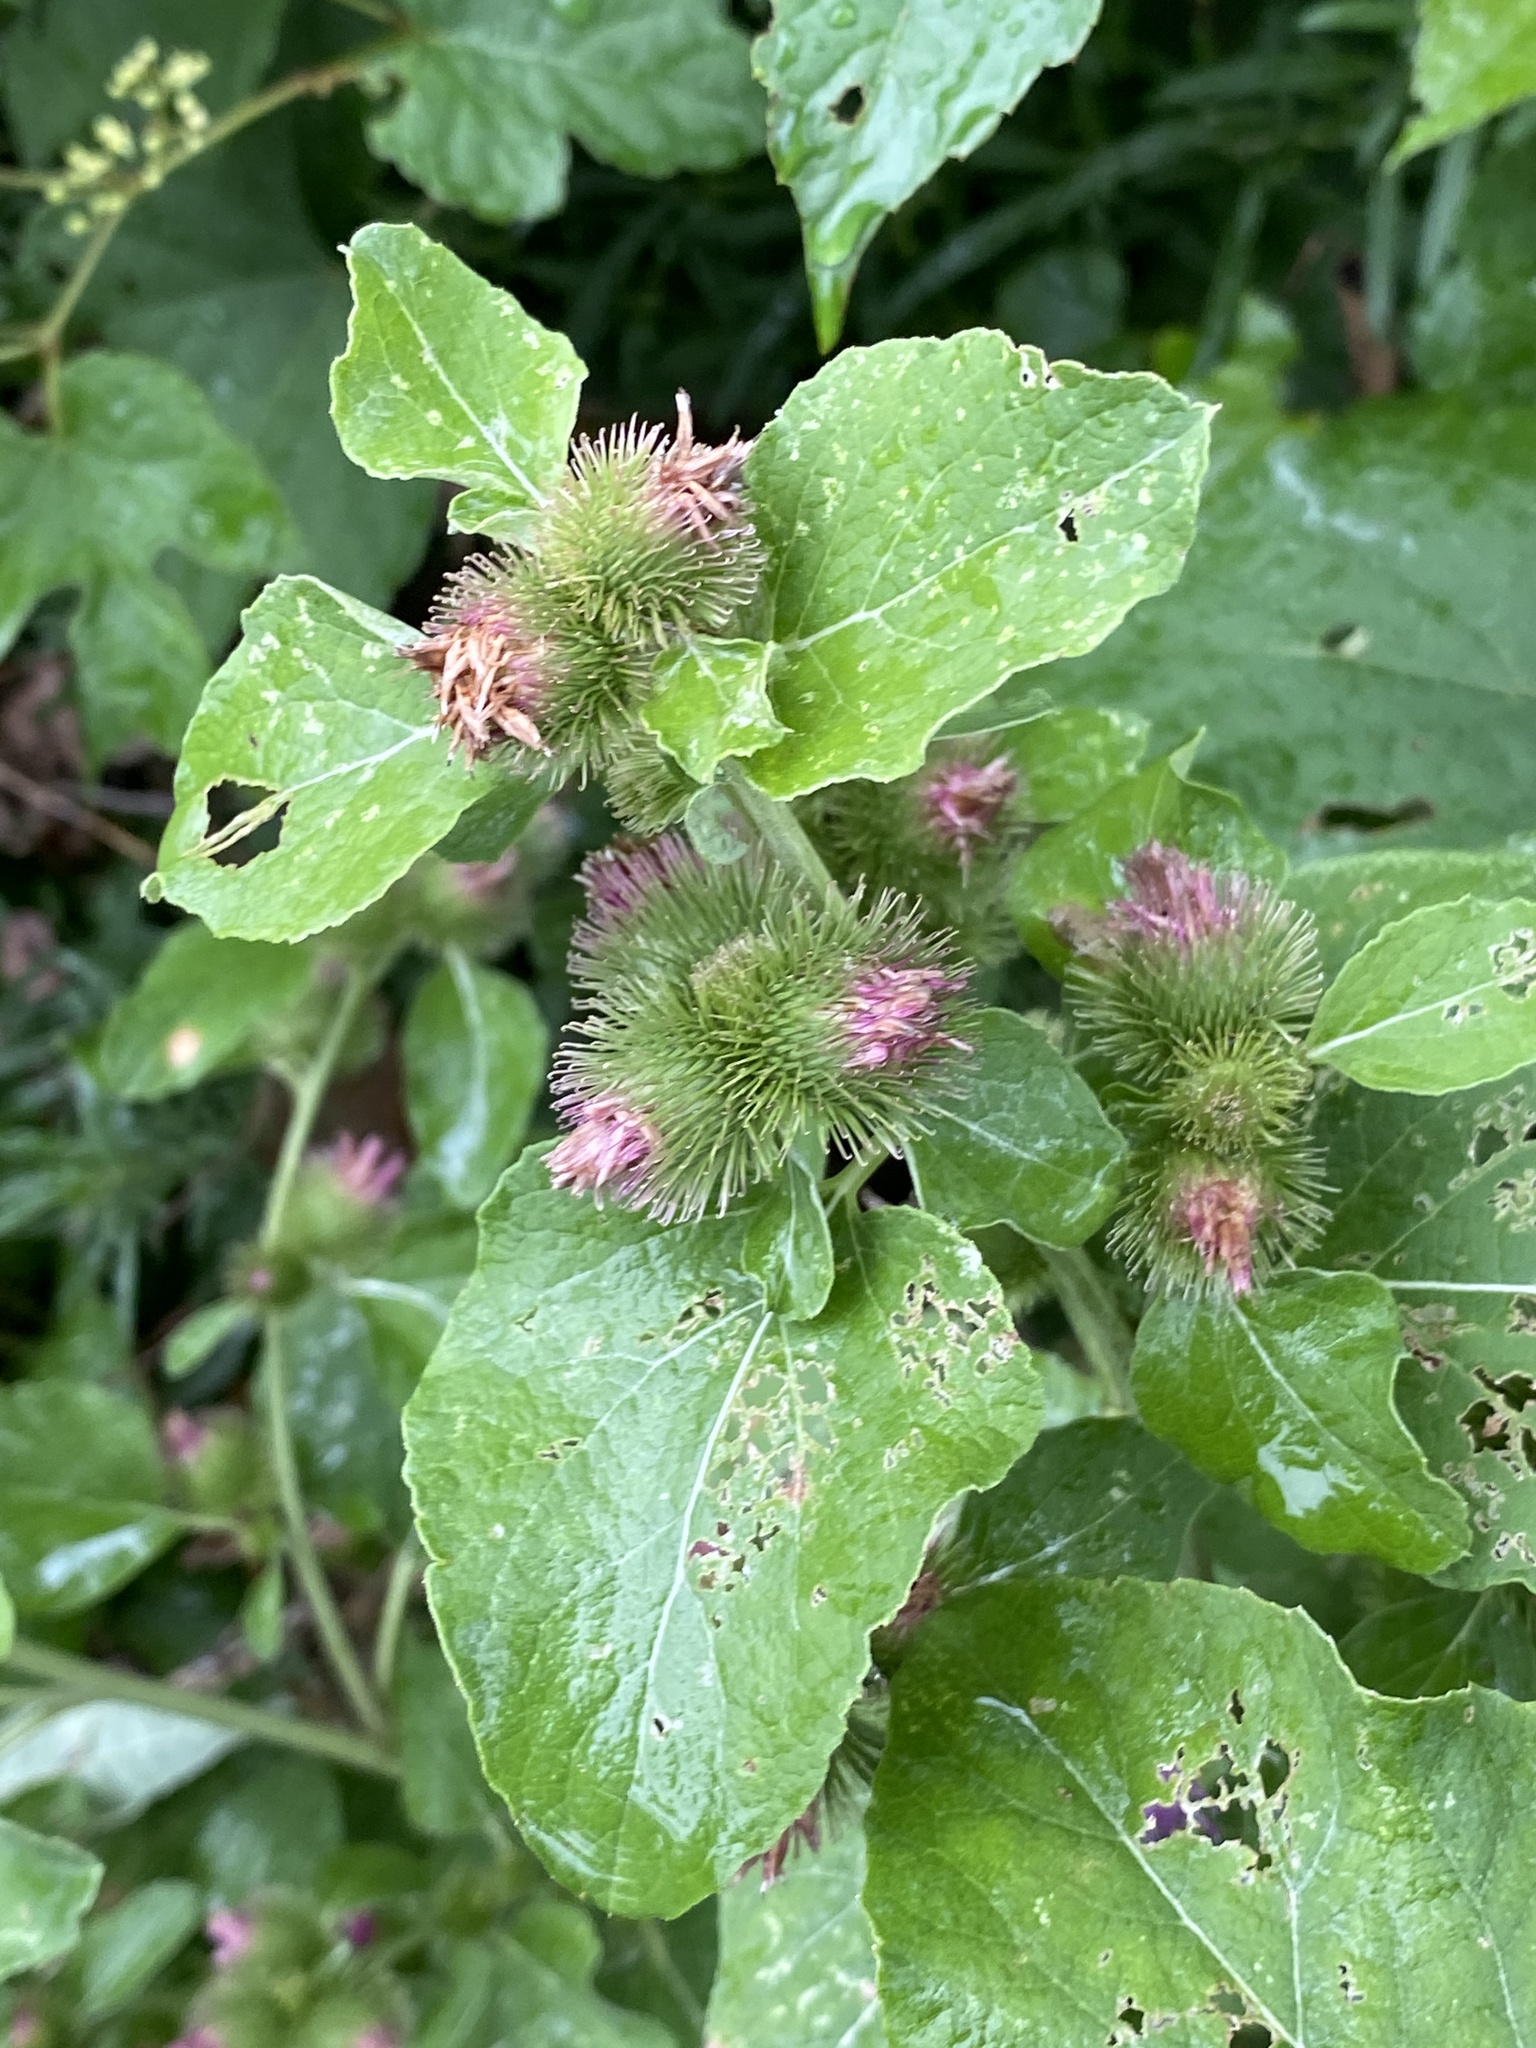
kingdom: Plantae
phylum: Tracheophyta
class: Magnoliopsida
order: Asterales
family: Asteraceae
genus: Arctium
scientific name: Arctium minus
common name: Lesser burdock
